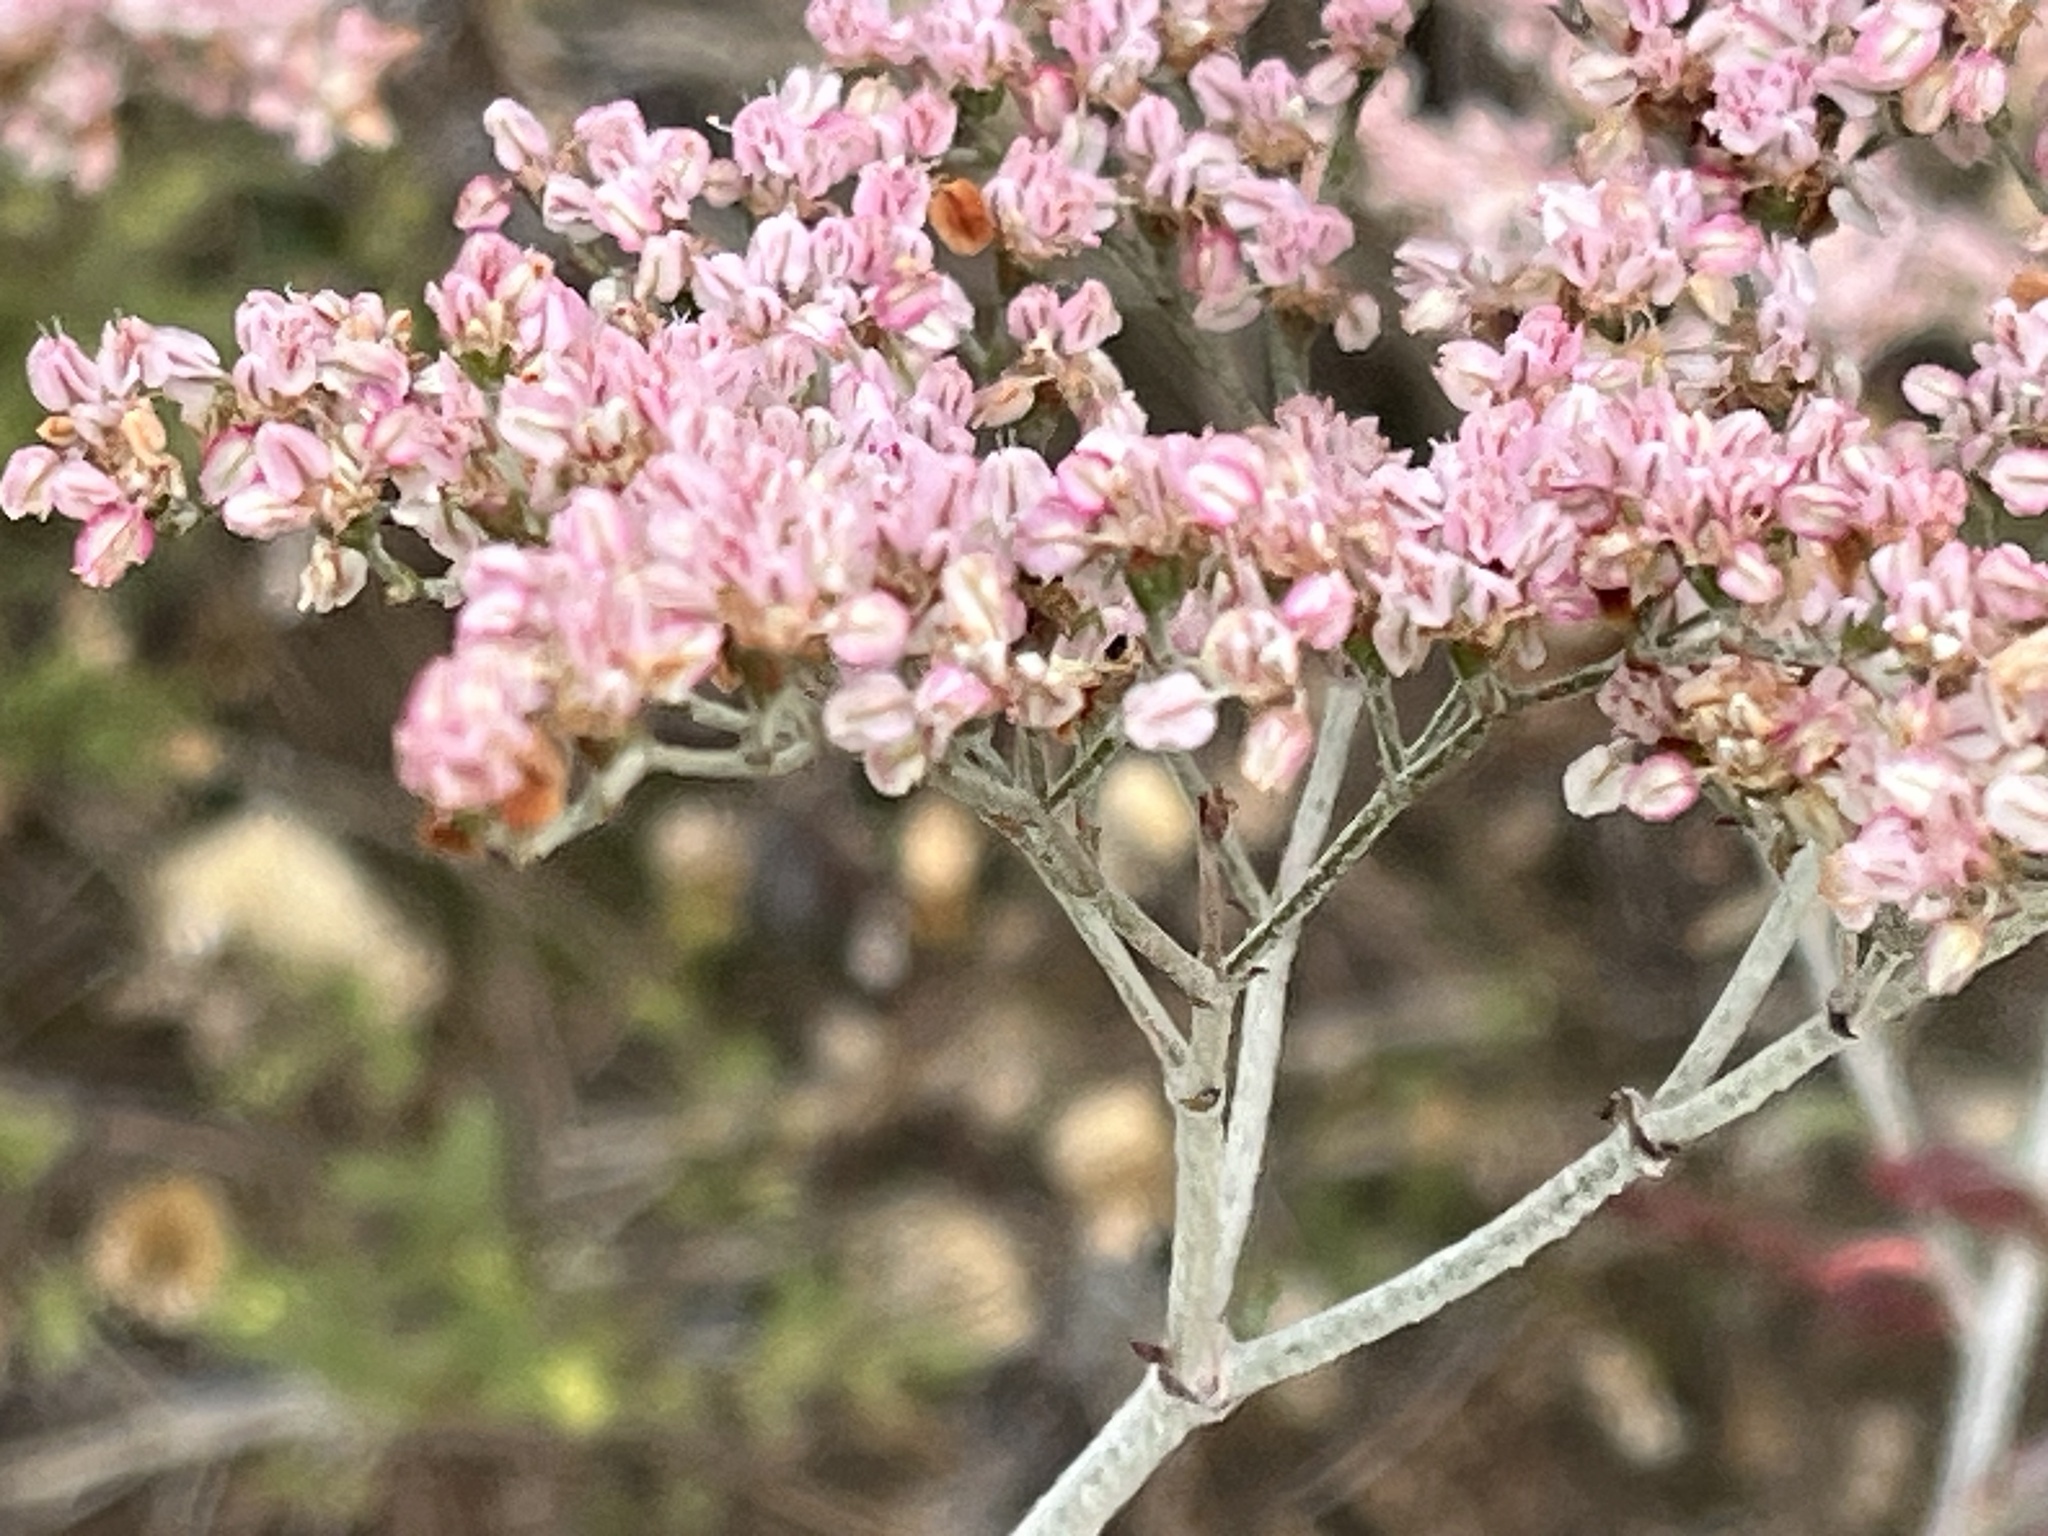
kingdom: Plantae
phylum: Tracheophyta
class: Magnoliopsida
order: Caryophyllales
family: Polygonaceae
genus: Eriogonum
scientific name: Eriogonum multiflorum
